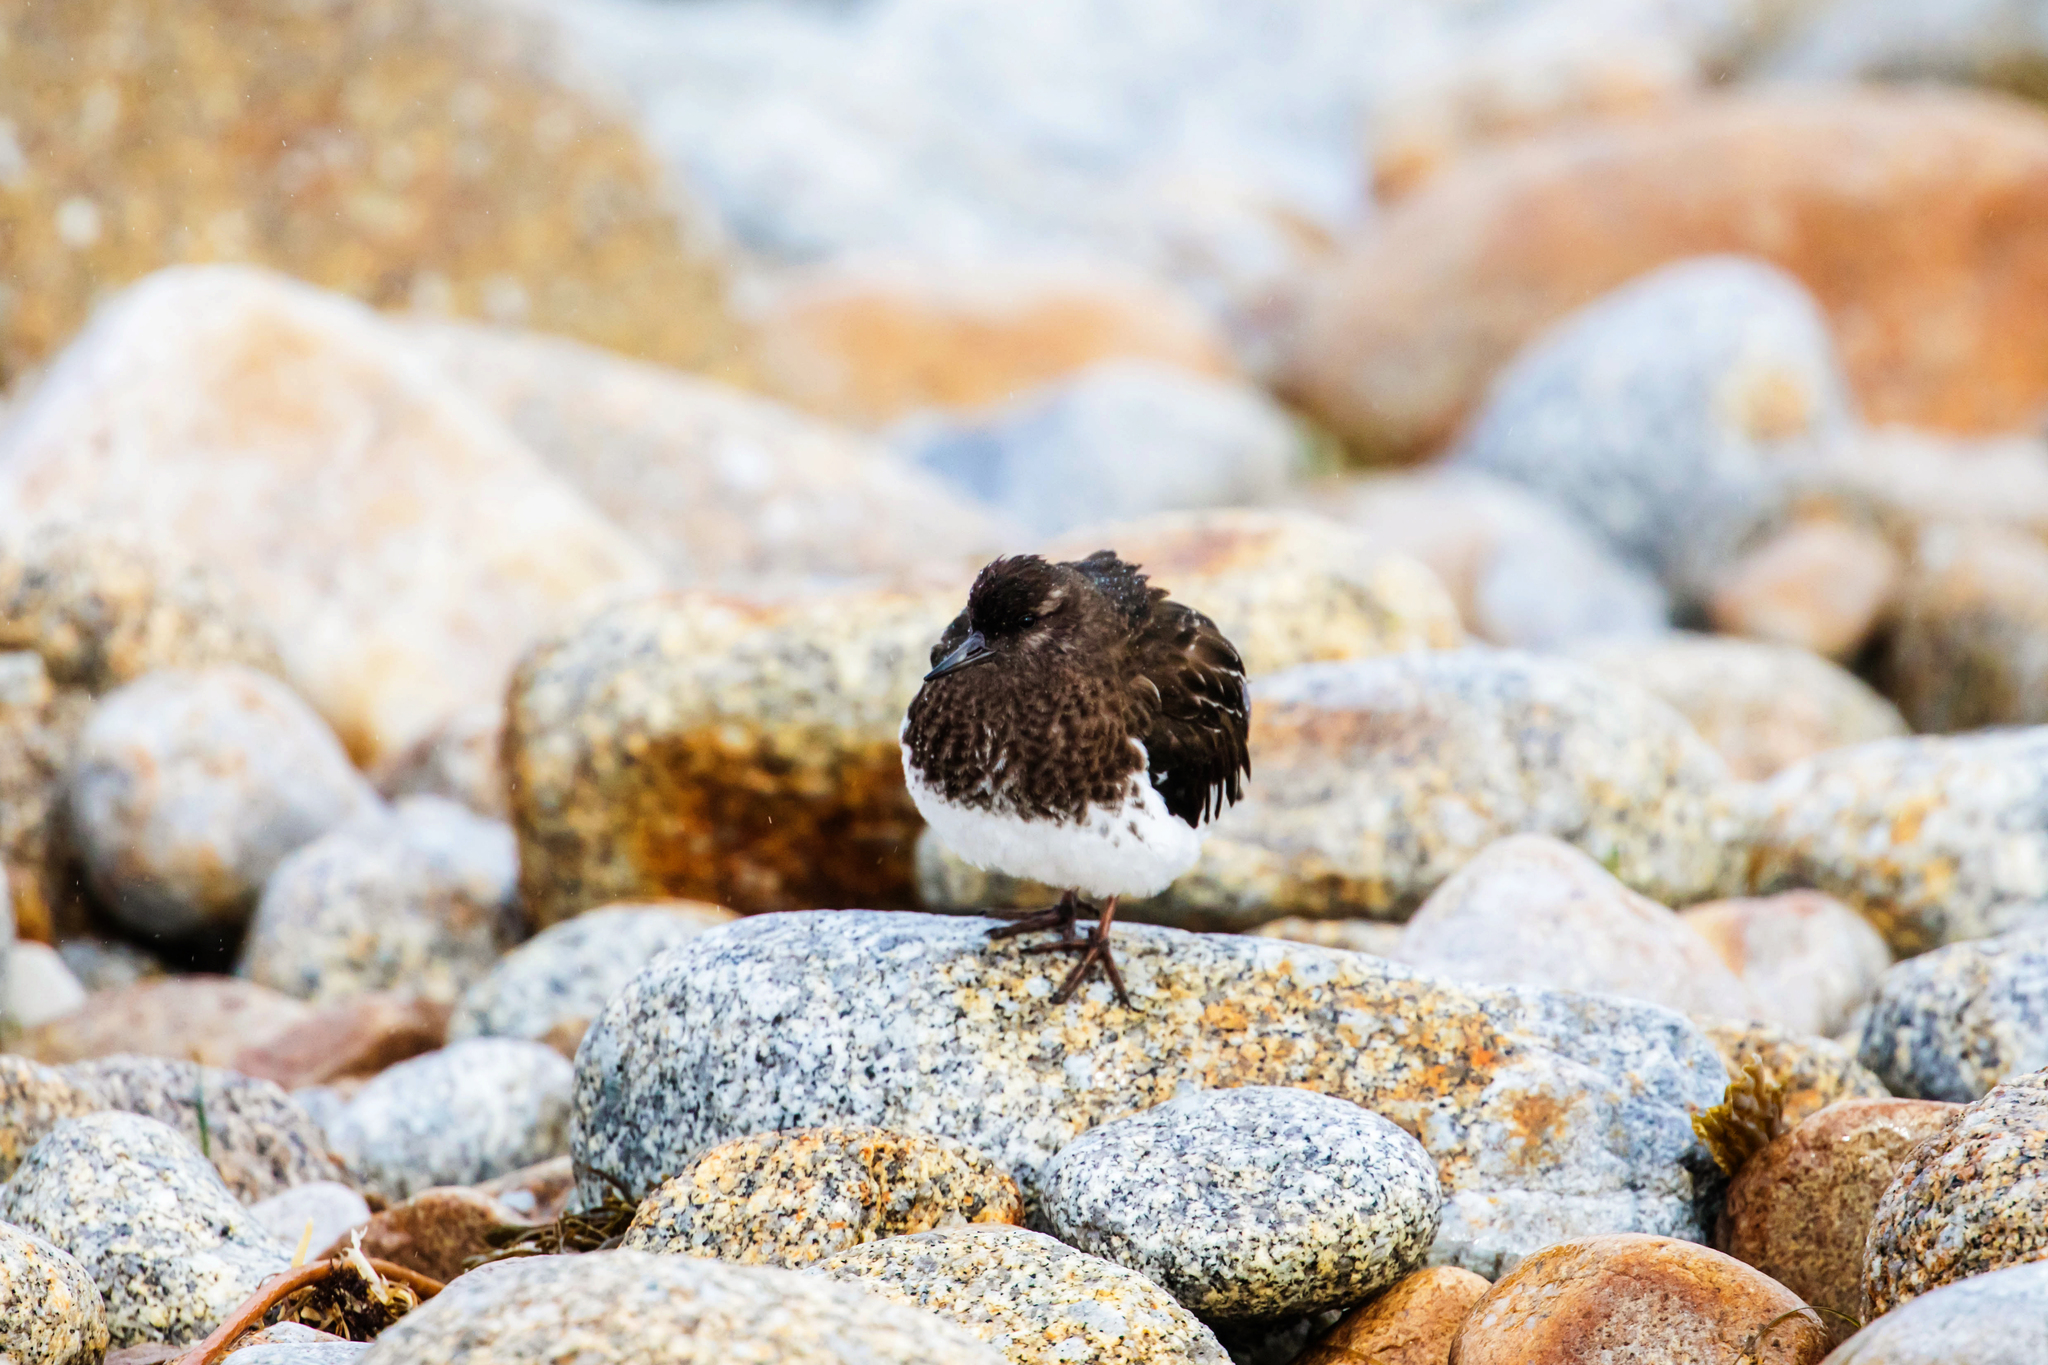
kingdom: Animalia
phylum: Chordata
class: Aves
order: Charadriiformes
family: Scolopacidae
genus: Arenaria
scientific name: Arenaria melanocephala
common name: Black turnstone
